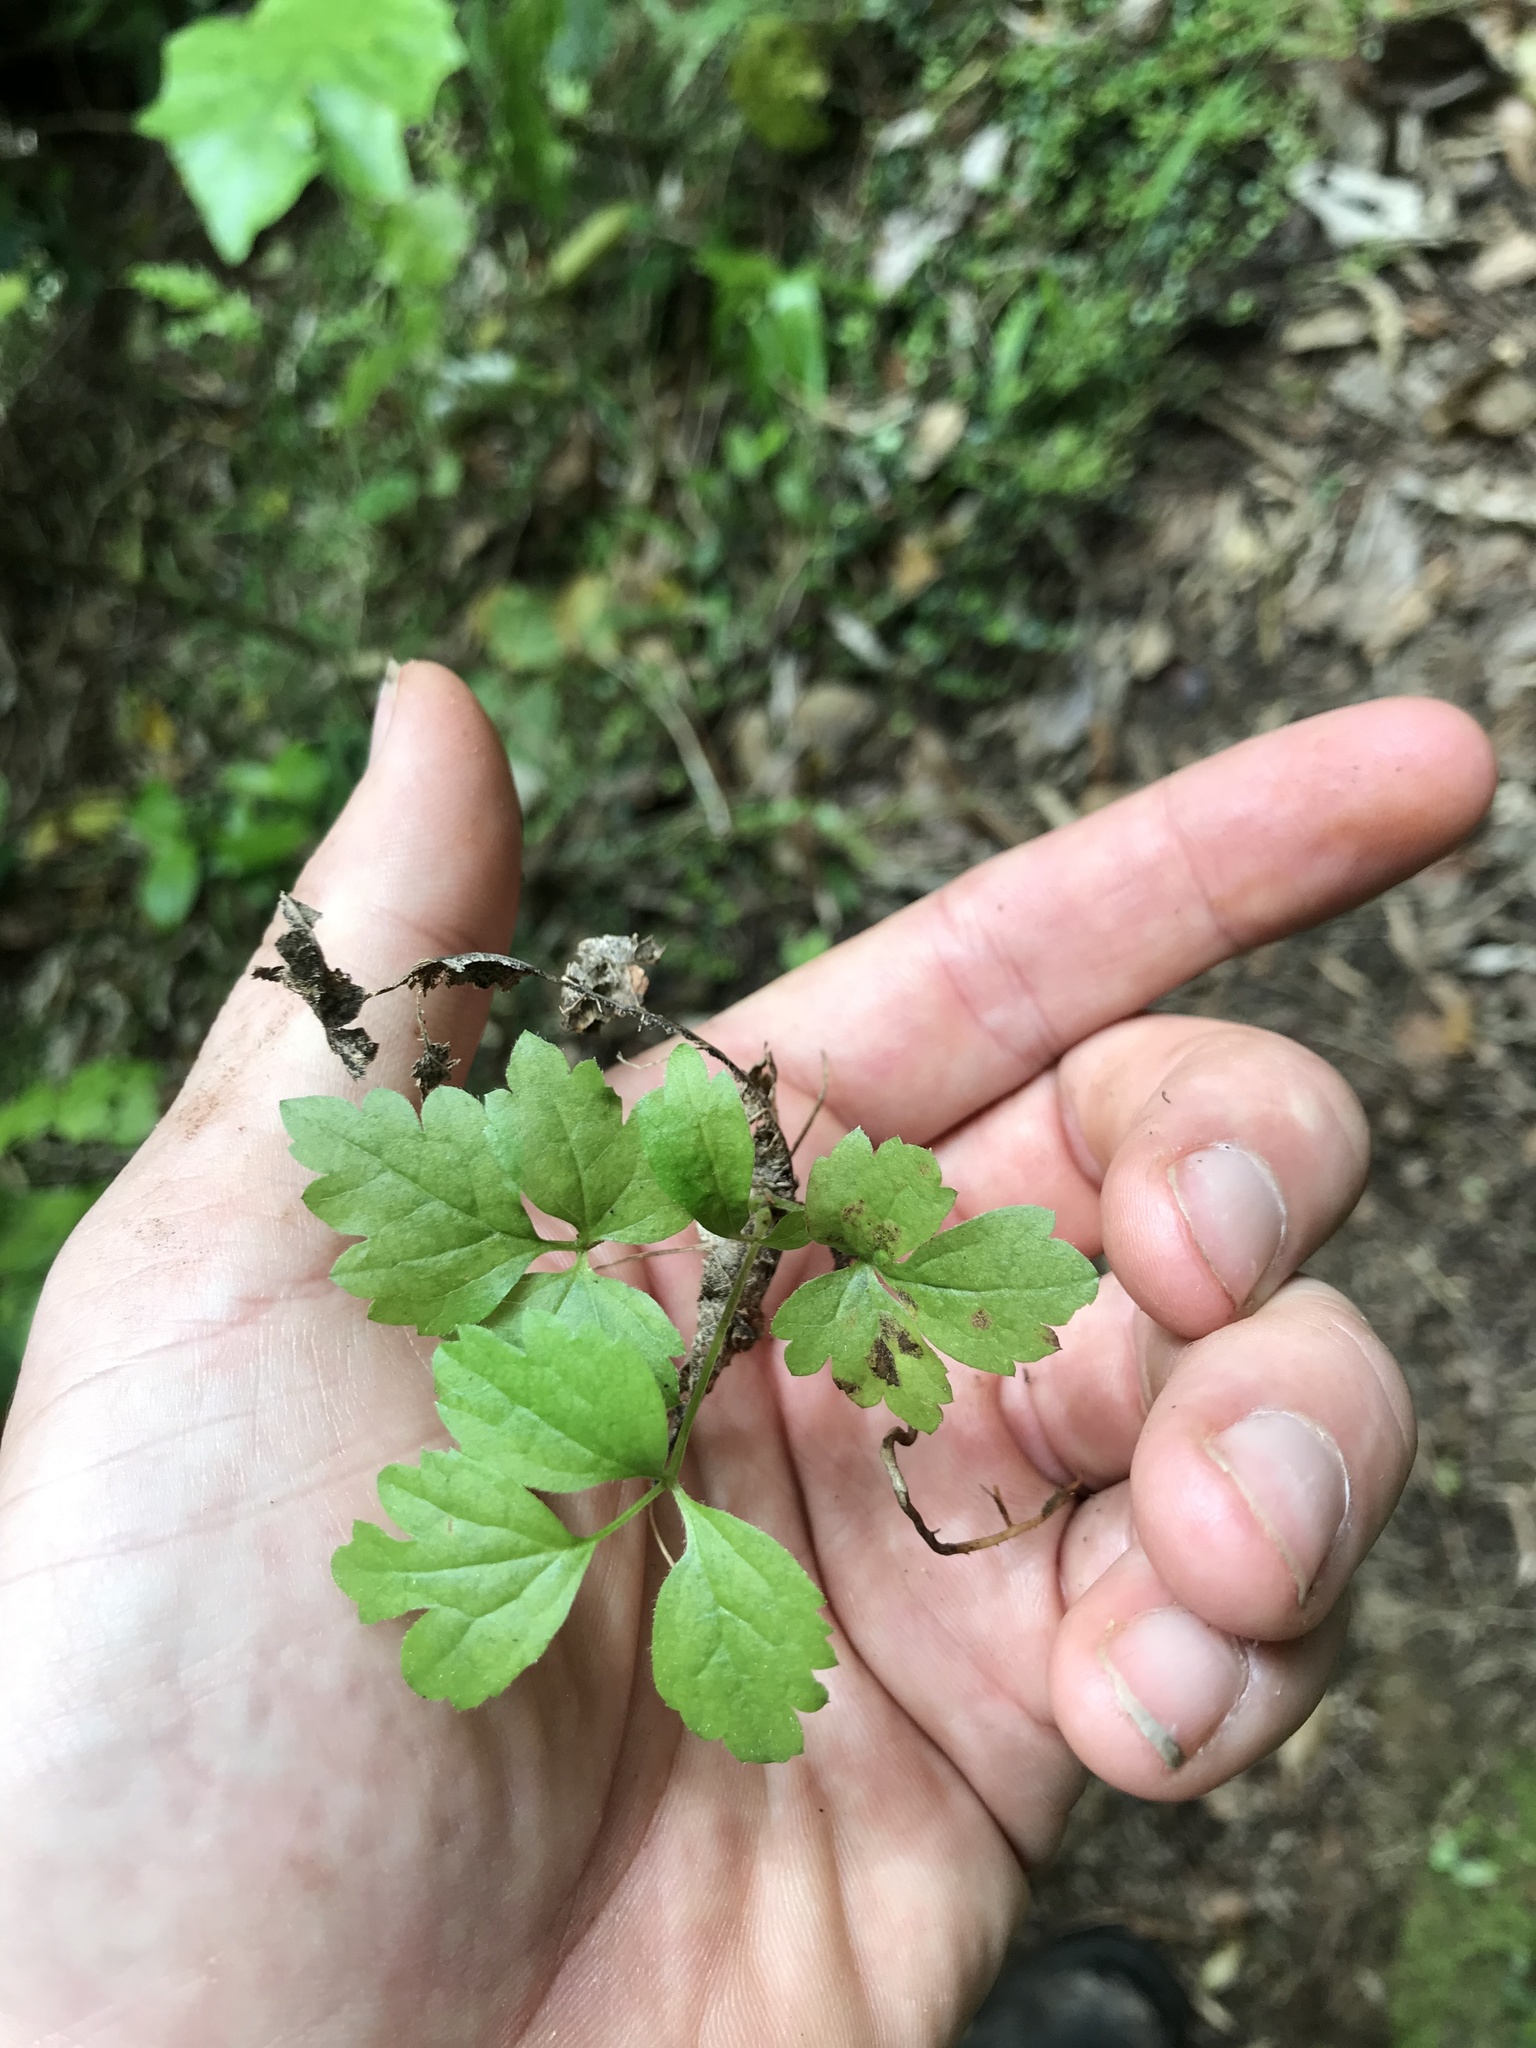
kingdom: Plantae
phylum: Tracheophyta
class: Magnoliopsida
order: Ranunculales
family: Ranunculaceae
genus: Clematis
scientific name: Clematis vitalba
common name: Evergreen clematis
